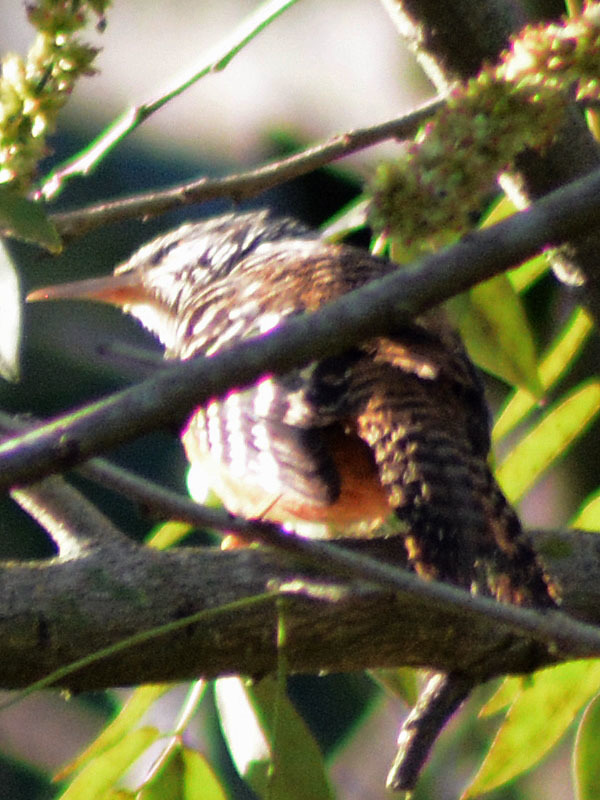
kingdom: Animalia
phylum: Chordata
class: Aves
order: Passeriformes
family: Troglodytidae
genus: Campylorhynchus
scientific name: Campylorhynchus zonatus
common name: Band-backed wren
